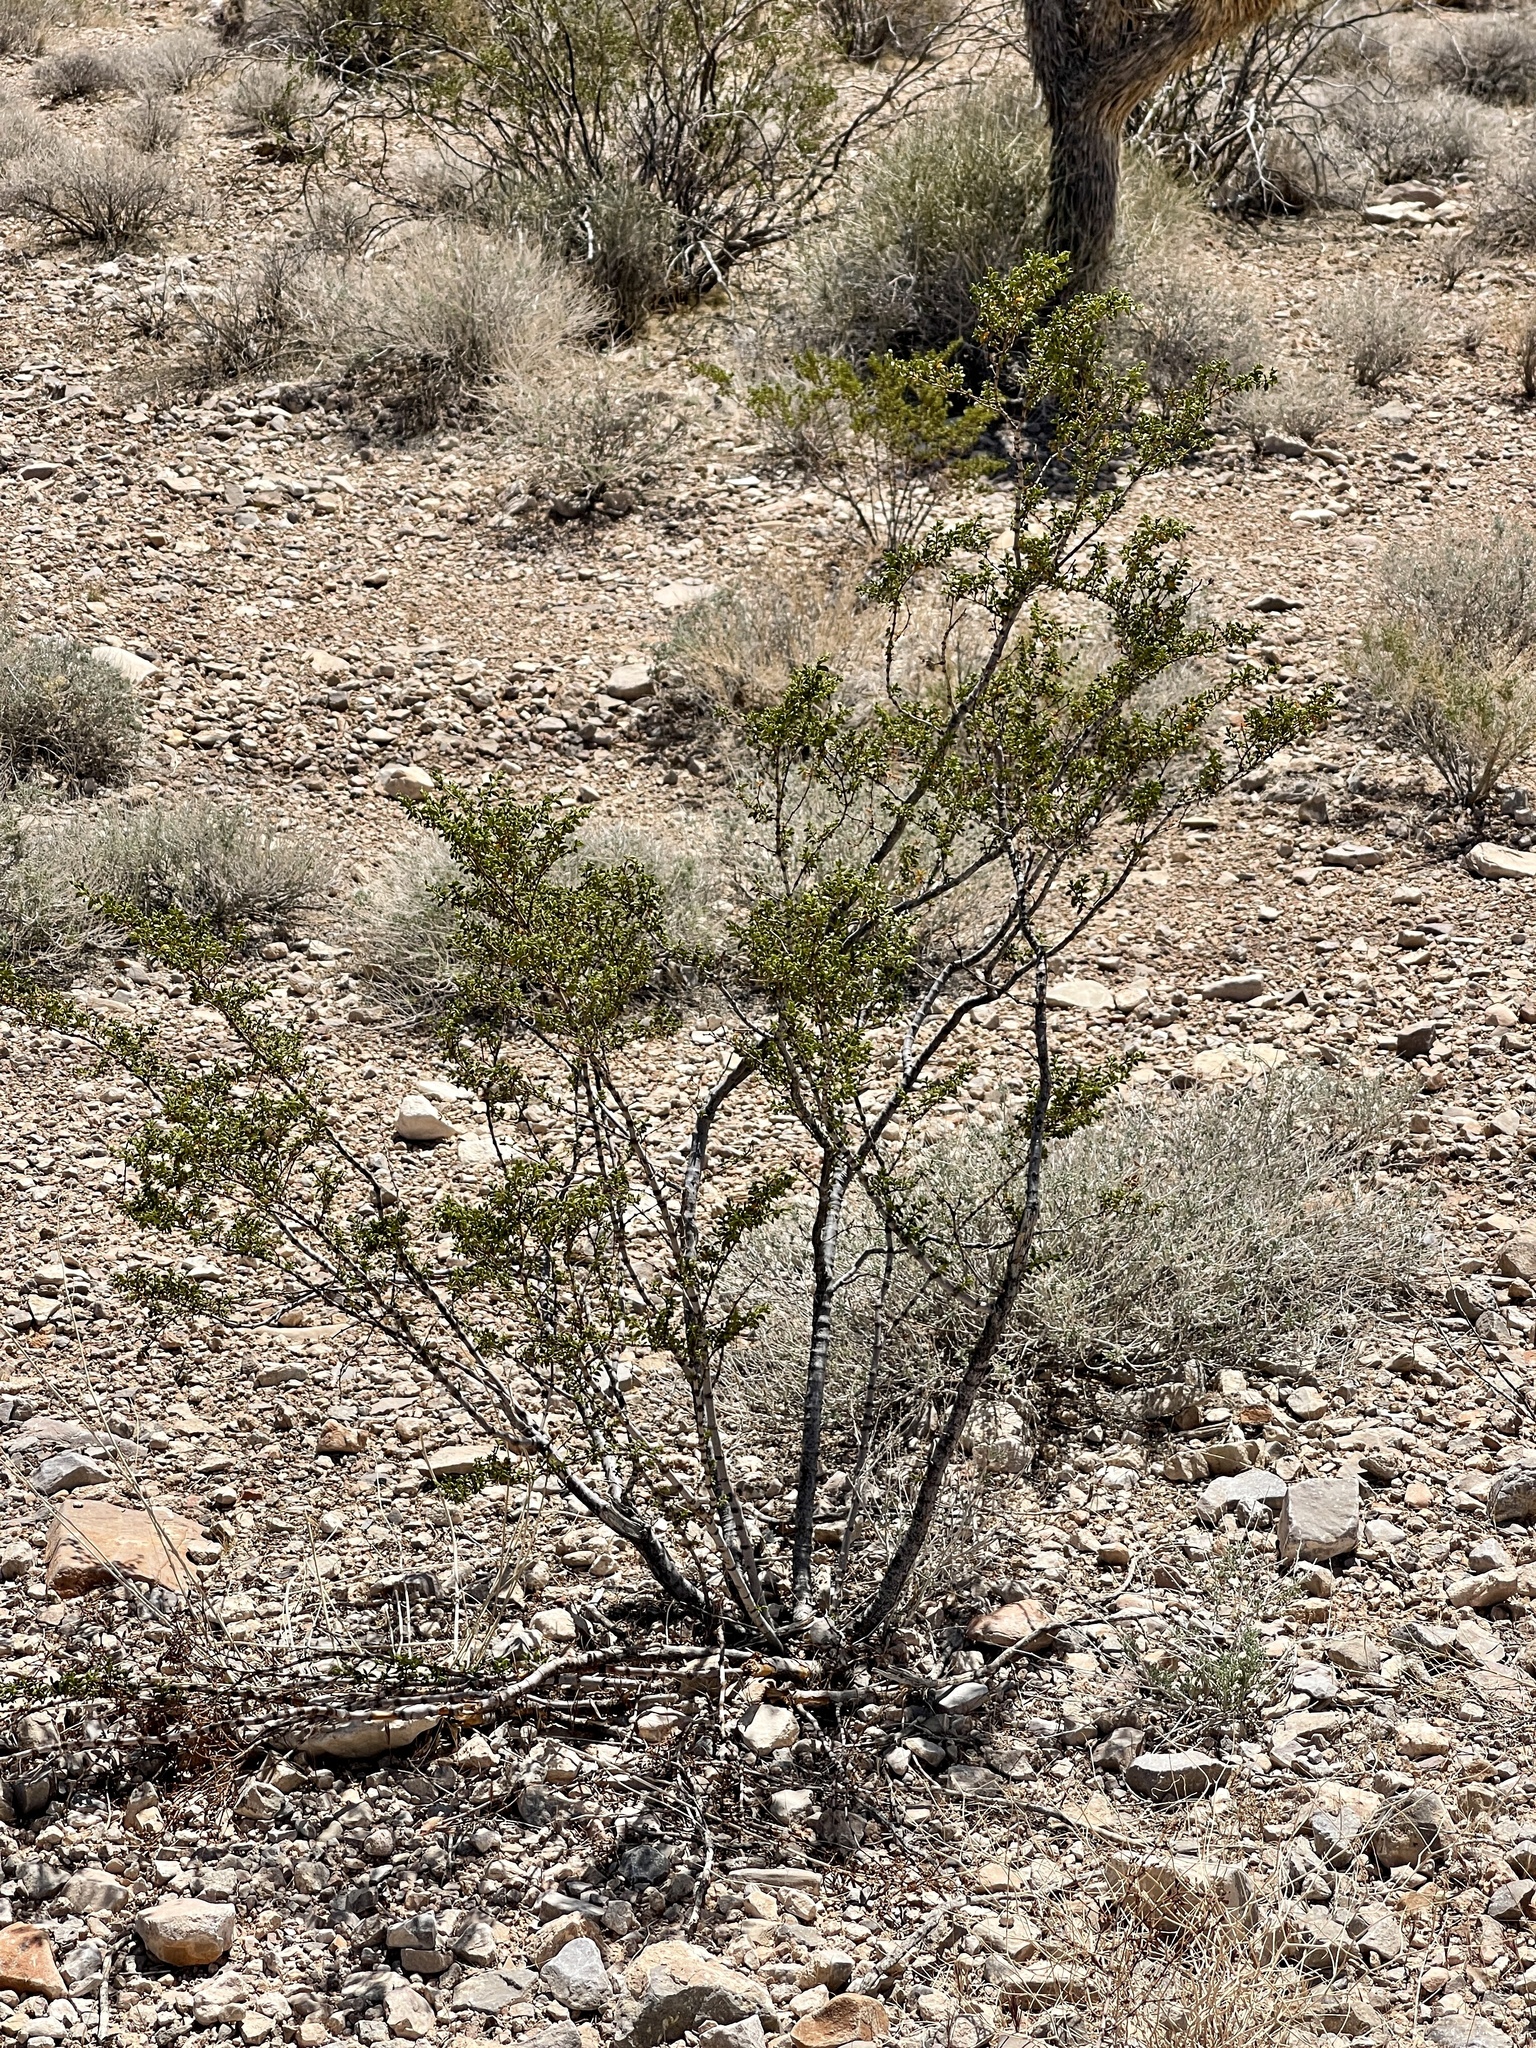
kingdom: Plantae
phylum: Tracheophyta
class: Magnoliopsida
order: Zygophyllales
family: Zygophyllaceae
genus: Larrea
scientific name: Larrea tridentata
